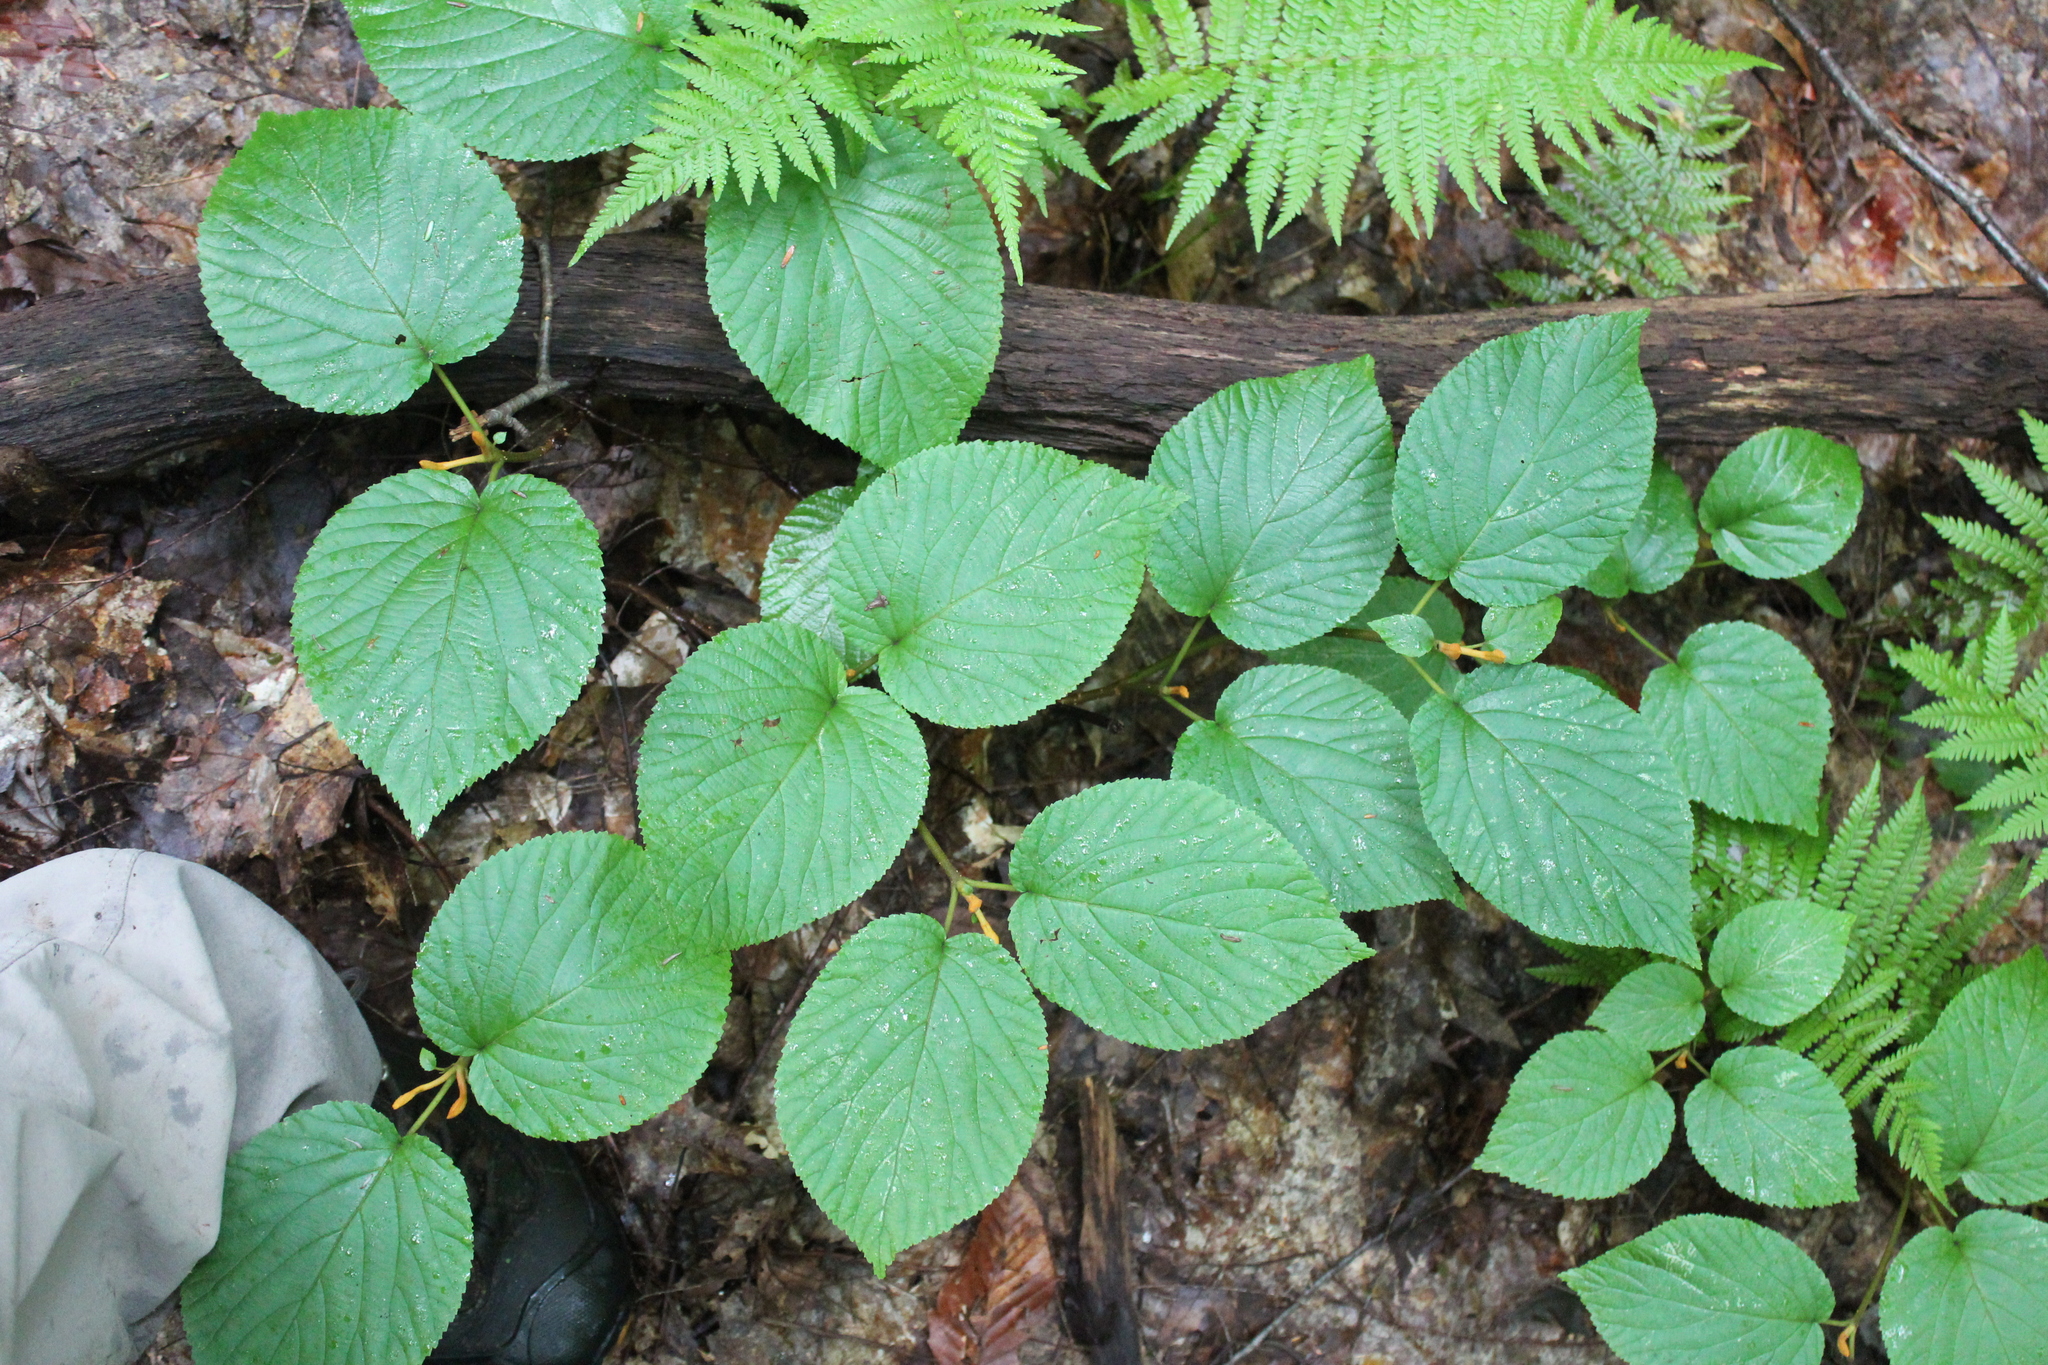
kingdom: Plantae
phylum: Tracheophyta
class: Magnoliopsida
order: Dipsacales
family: Viburnaceae
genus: Viburnum
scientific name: Viburnum lantanoides
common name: Hobblebush
